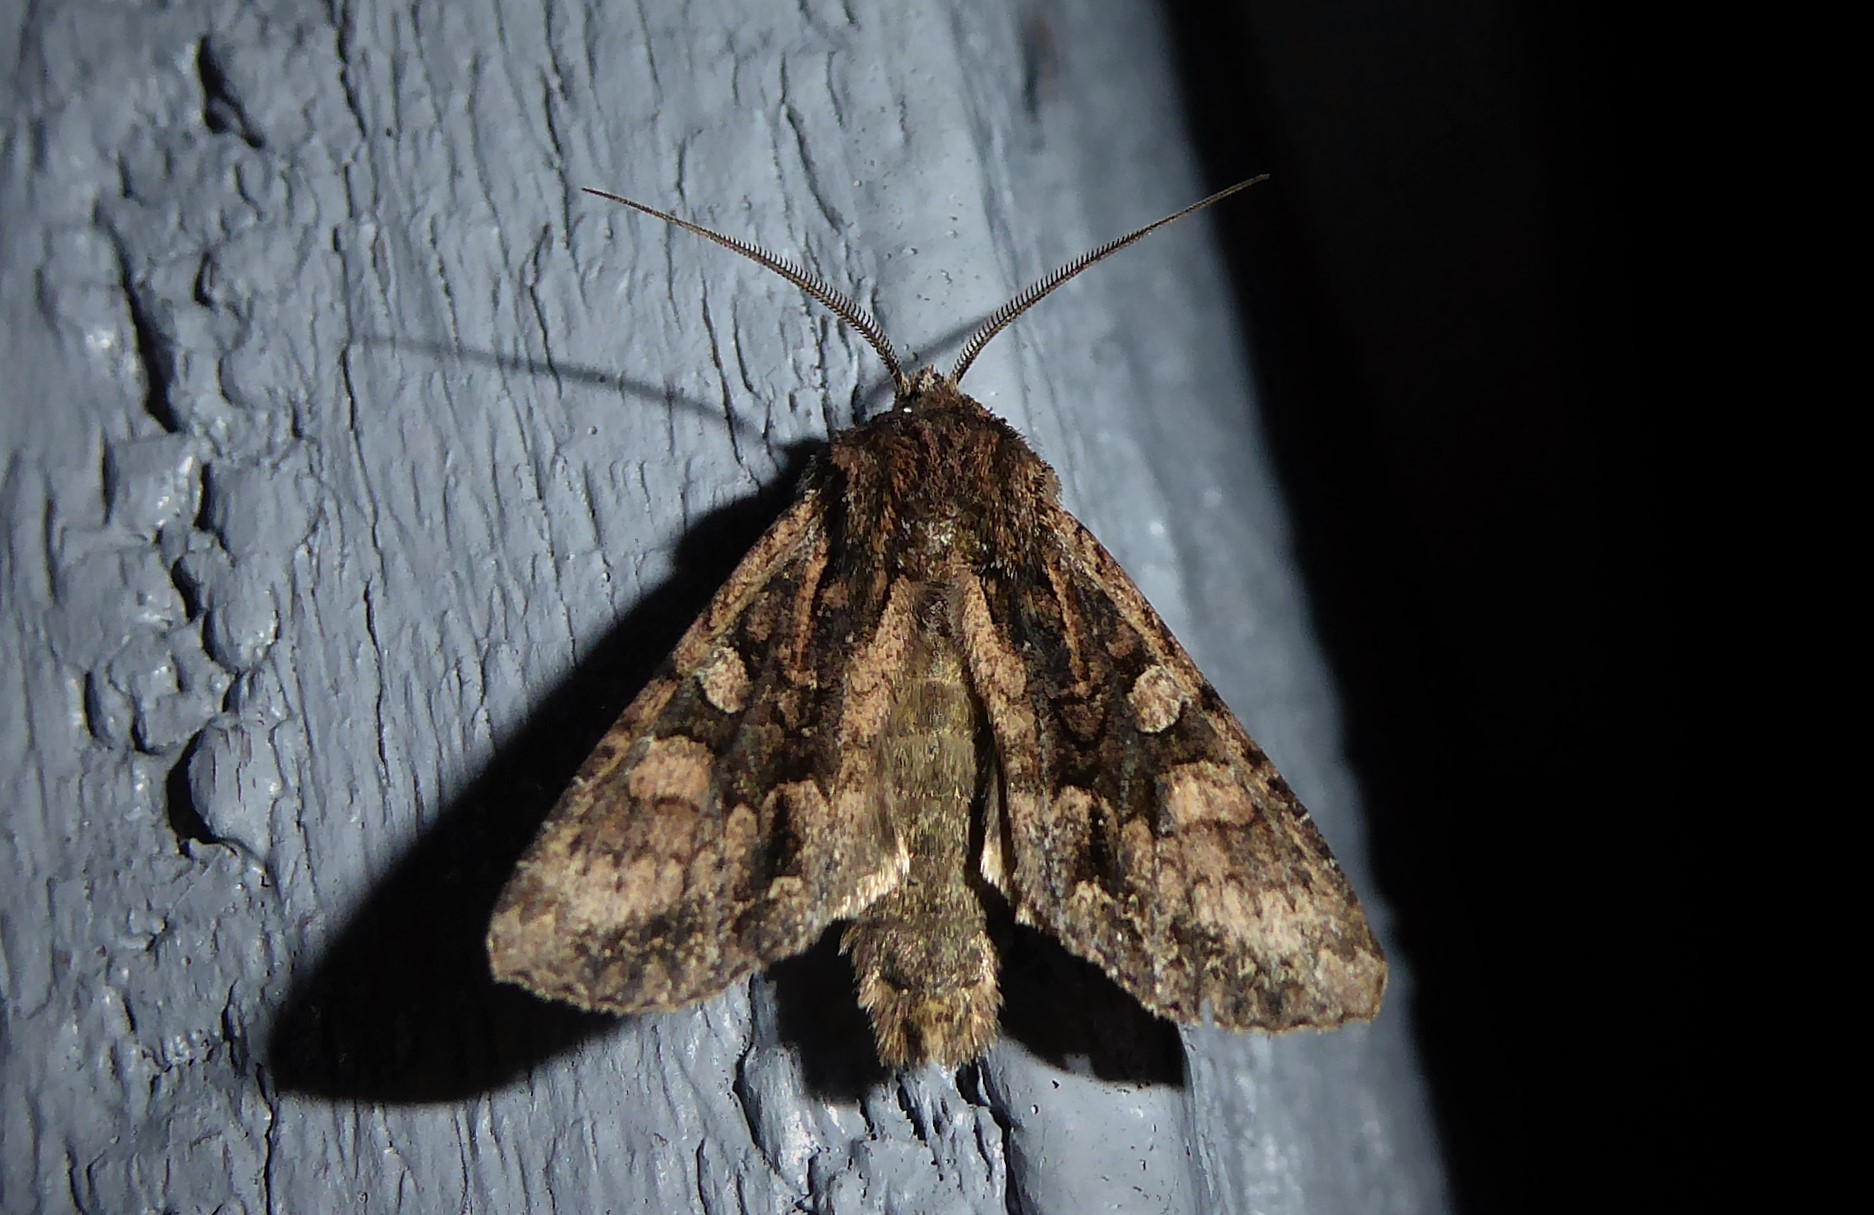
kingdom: Animalia
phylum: Arthropoda
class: Insecta
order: Lepidoptera
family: Noctuidae
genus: Ichneutica
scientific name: Ichneutica mutans
